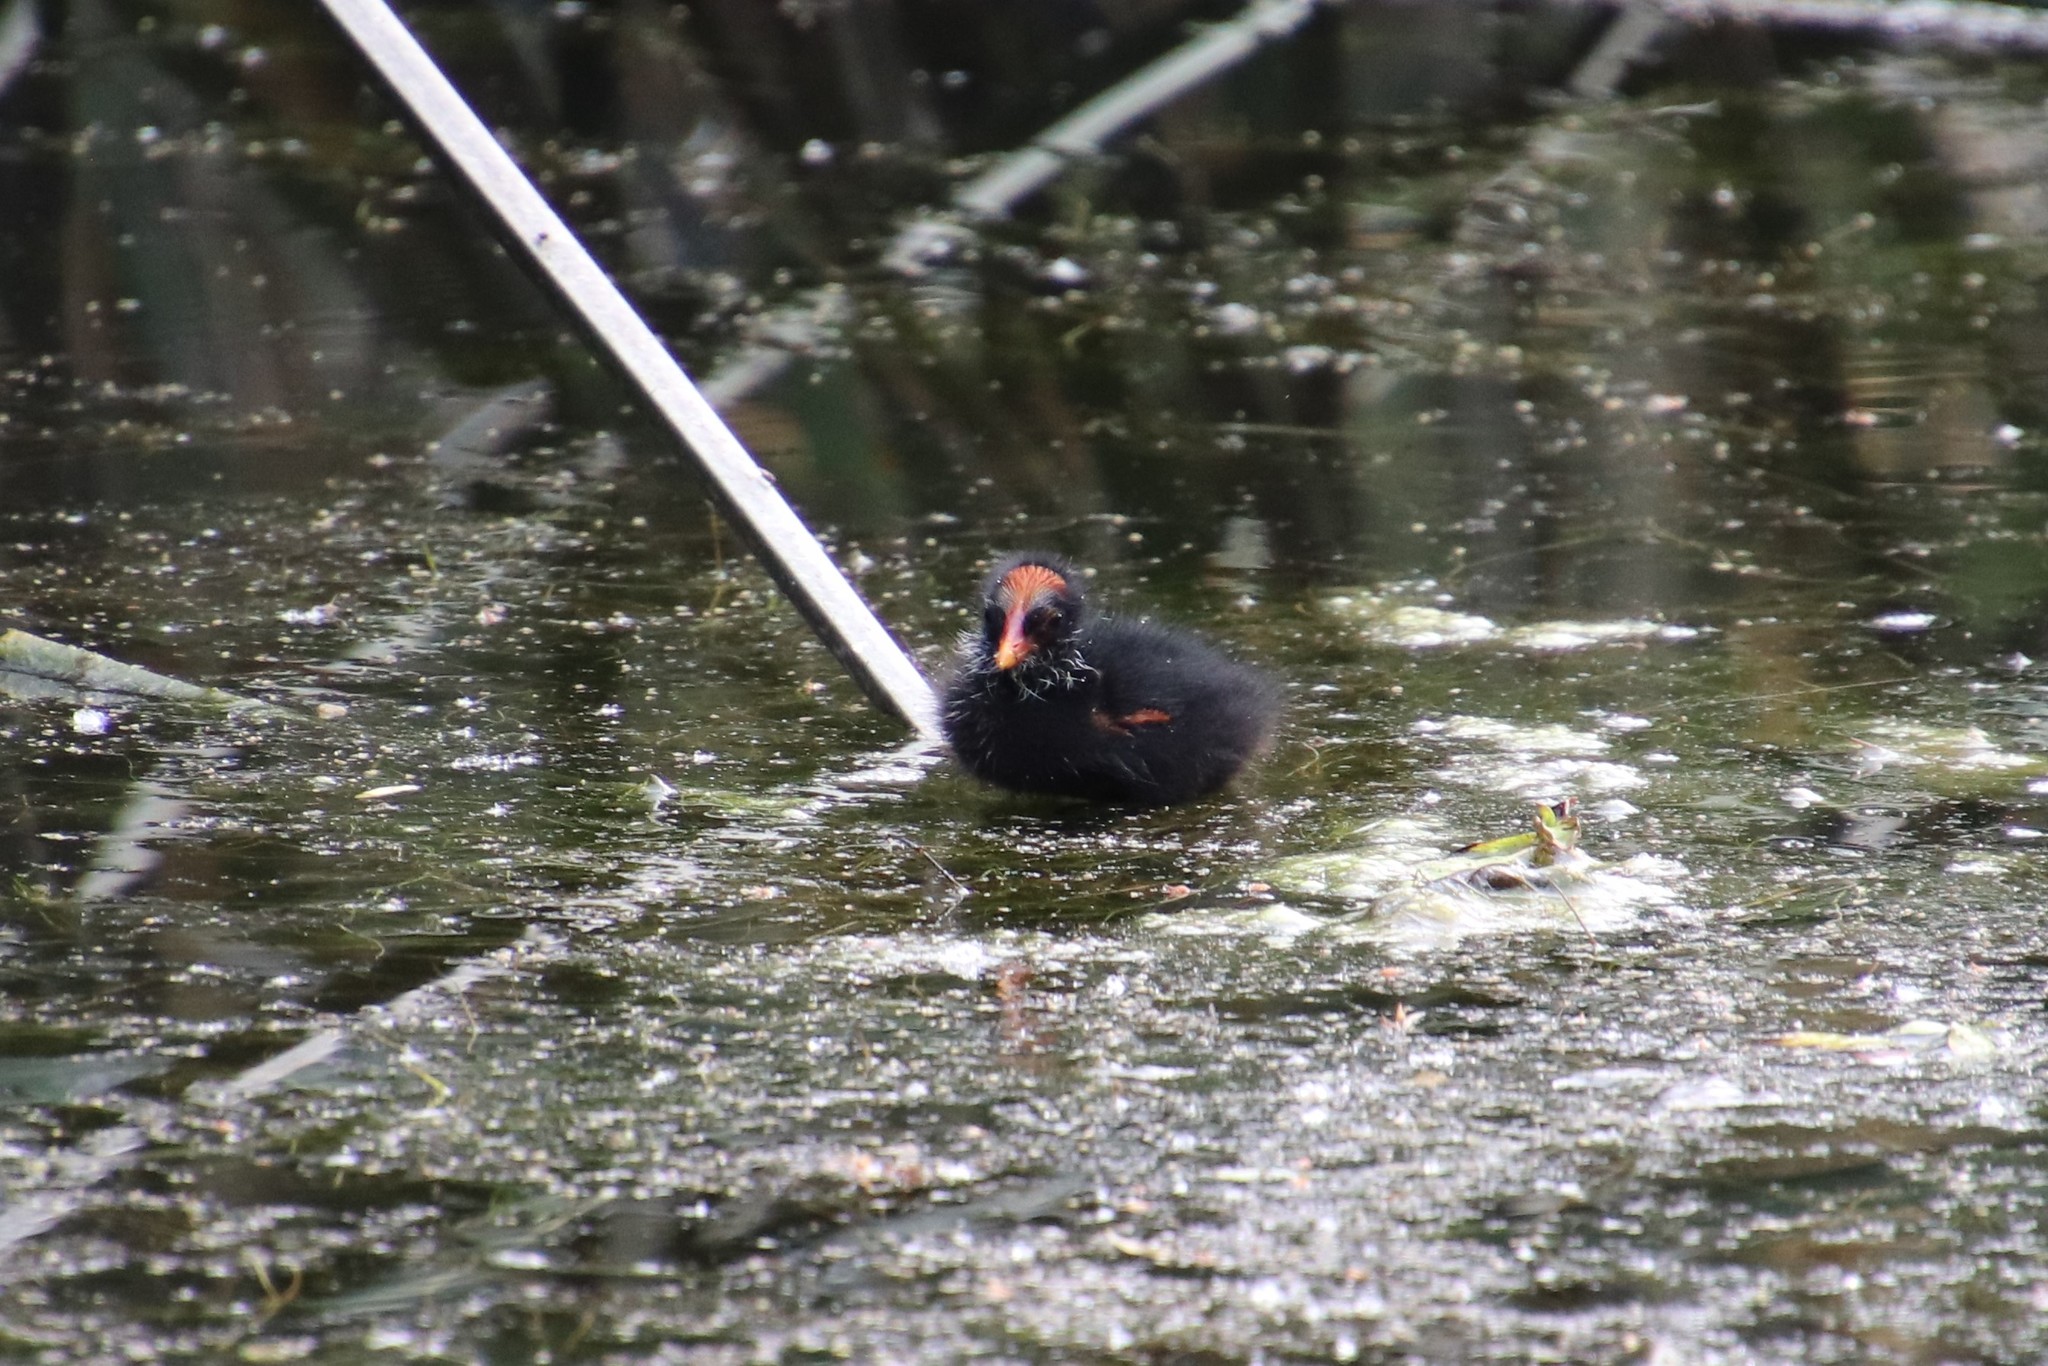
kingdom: Animalia
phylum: Chordata
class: Aves
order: Gruiformes
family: Rallidae
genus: Gallinula
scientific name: Gallinula chloropus
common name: Common moorhen
